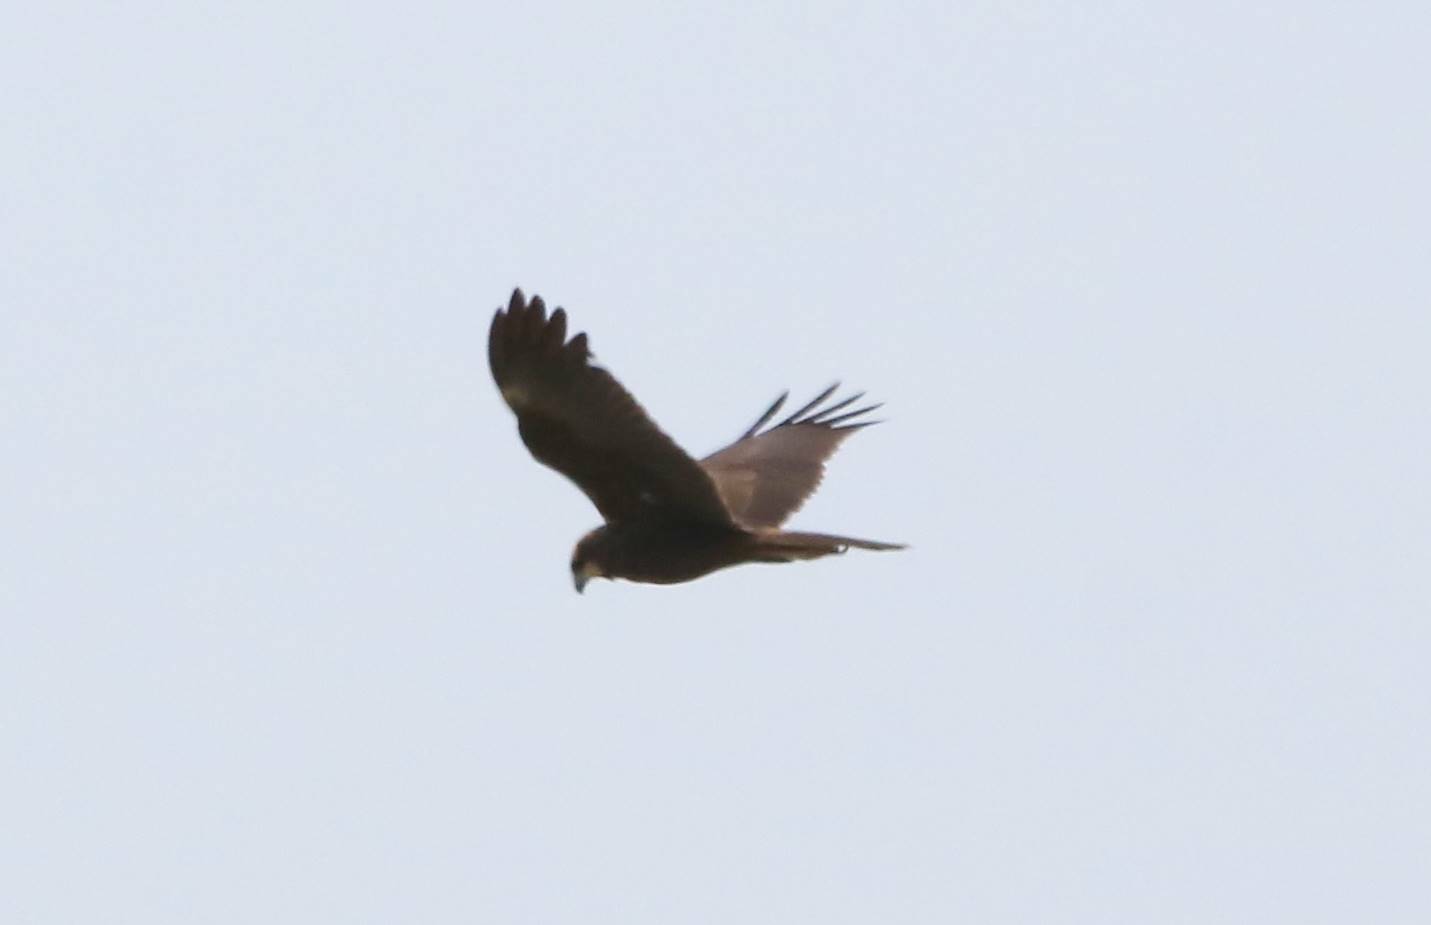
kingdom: Animalia
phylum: Chordata
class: Aves
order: Accipitriformes
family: Accipitridae
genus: Circus
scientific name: Circus aeruginosus
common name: Western marsh harrier
